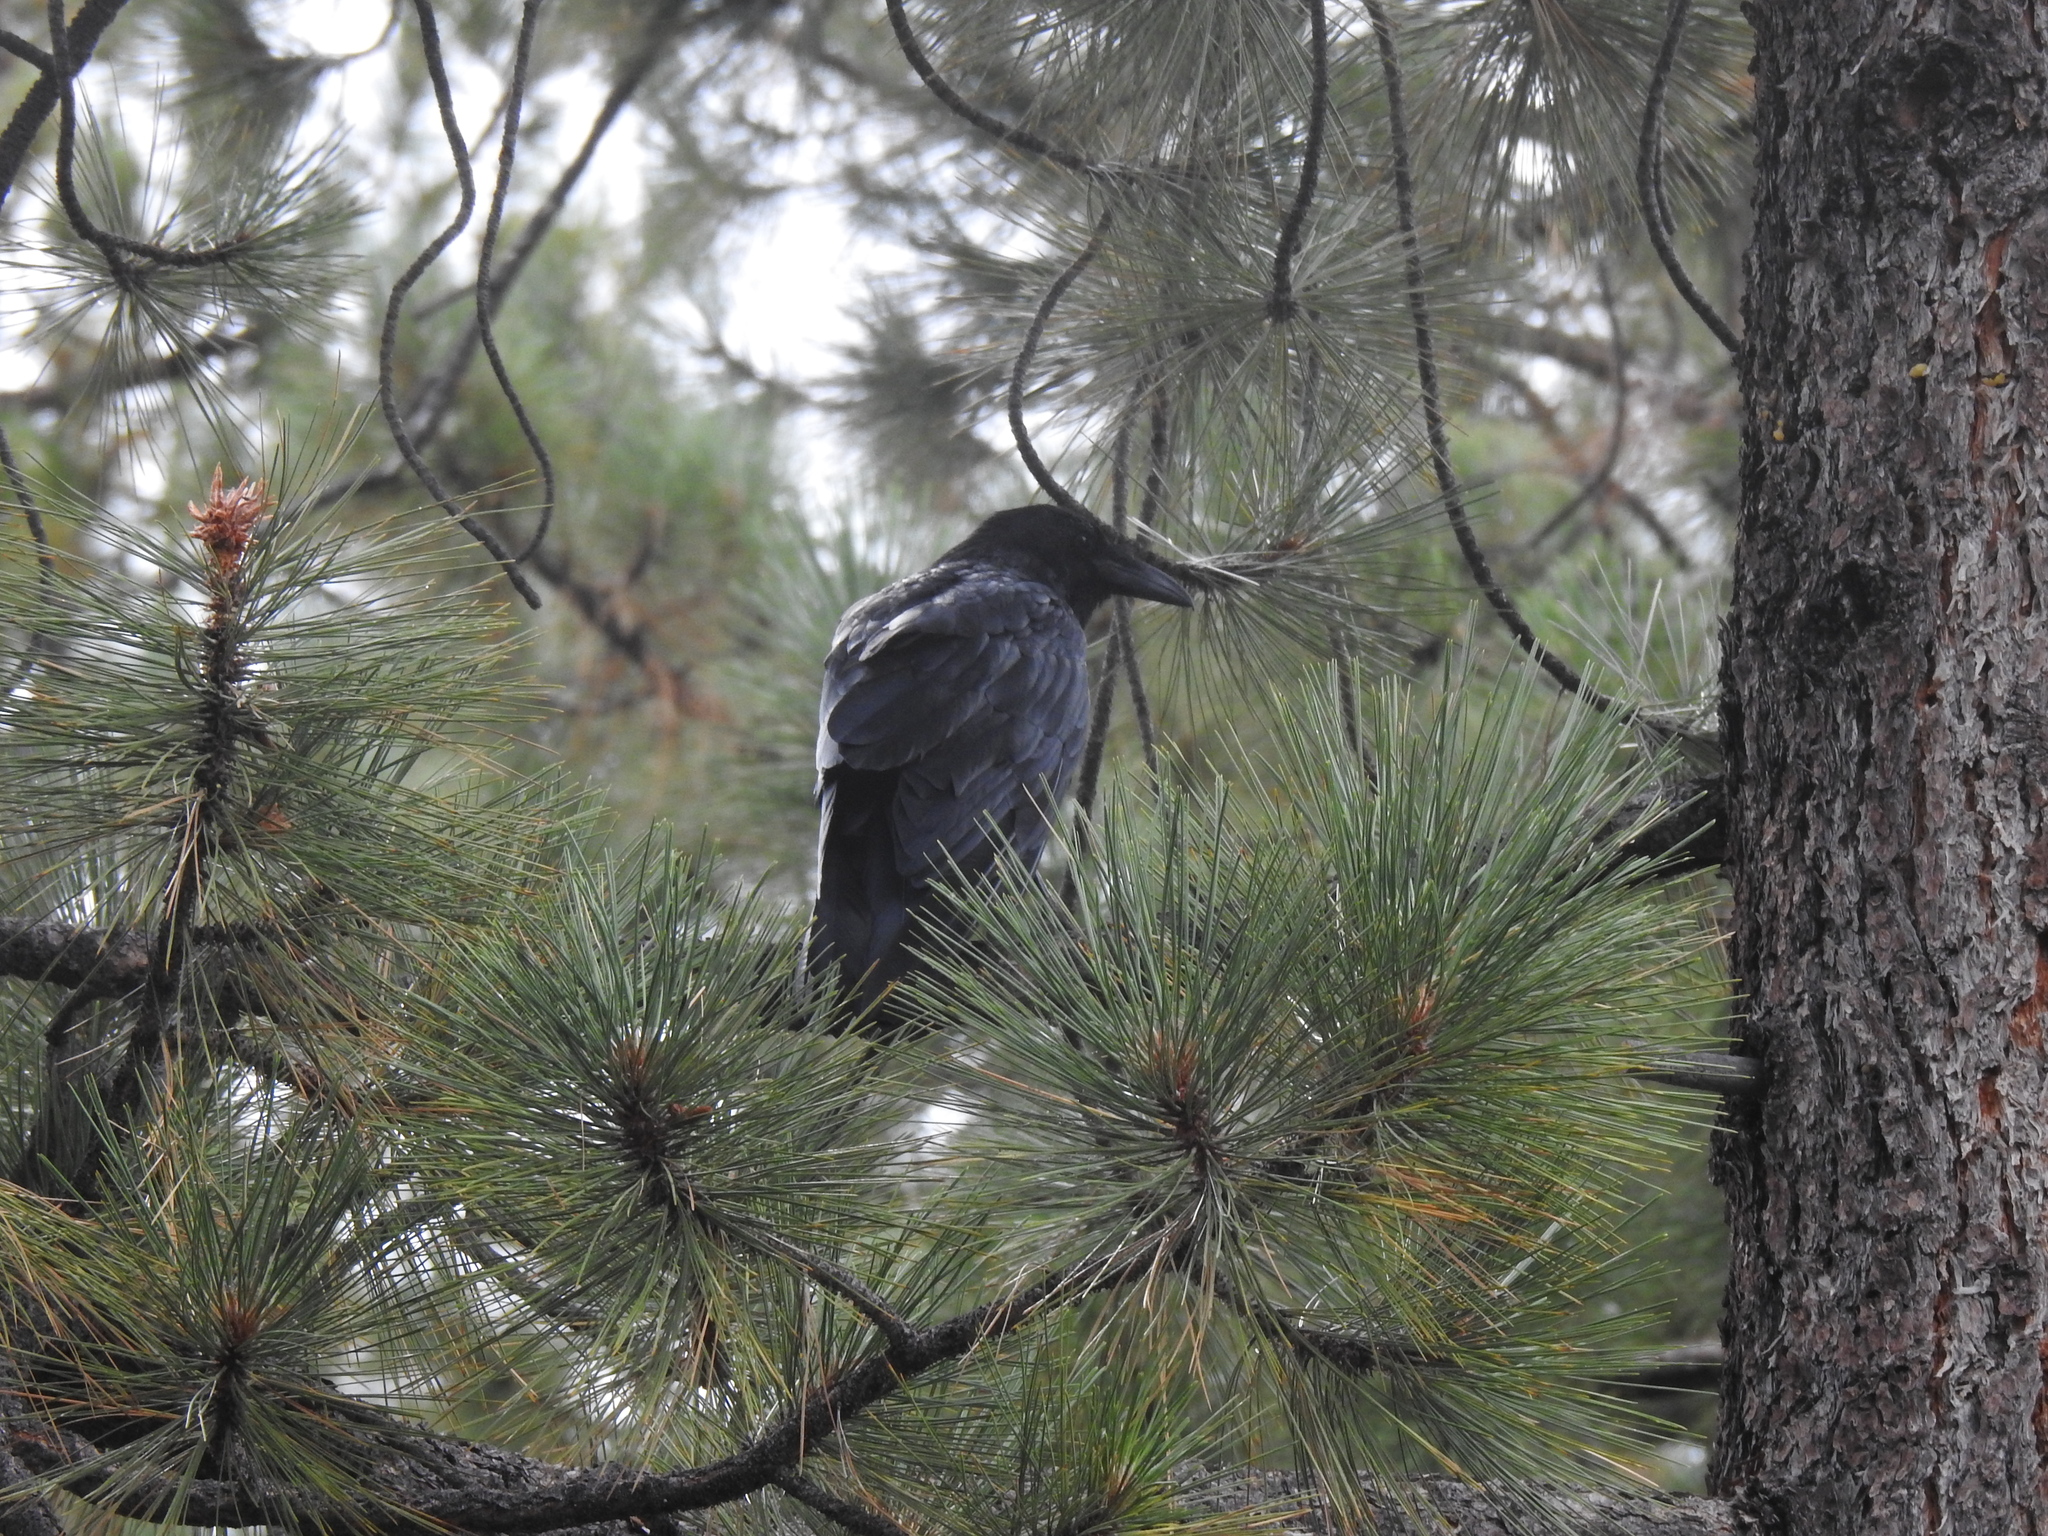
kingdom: Animalia
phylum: Chordata
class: Aves
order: Passeriformes
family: Corvidae
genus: Corvus
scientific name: Corvus corax
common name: Common raven
